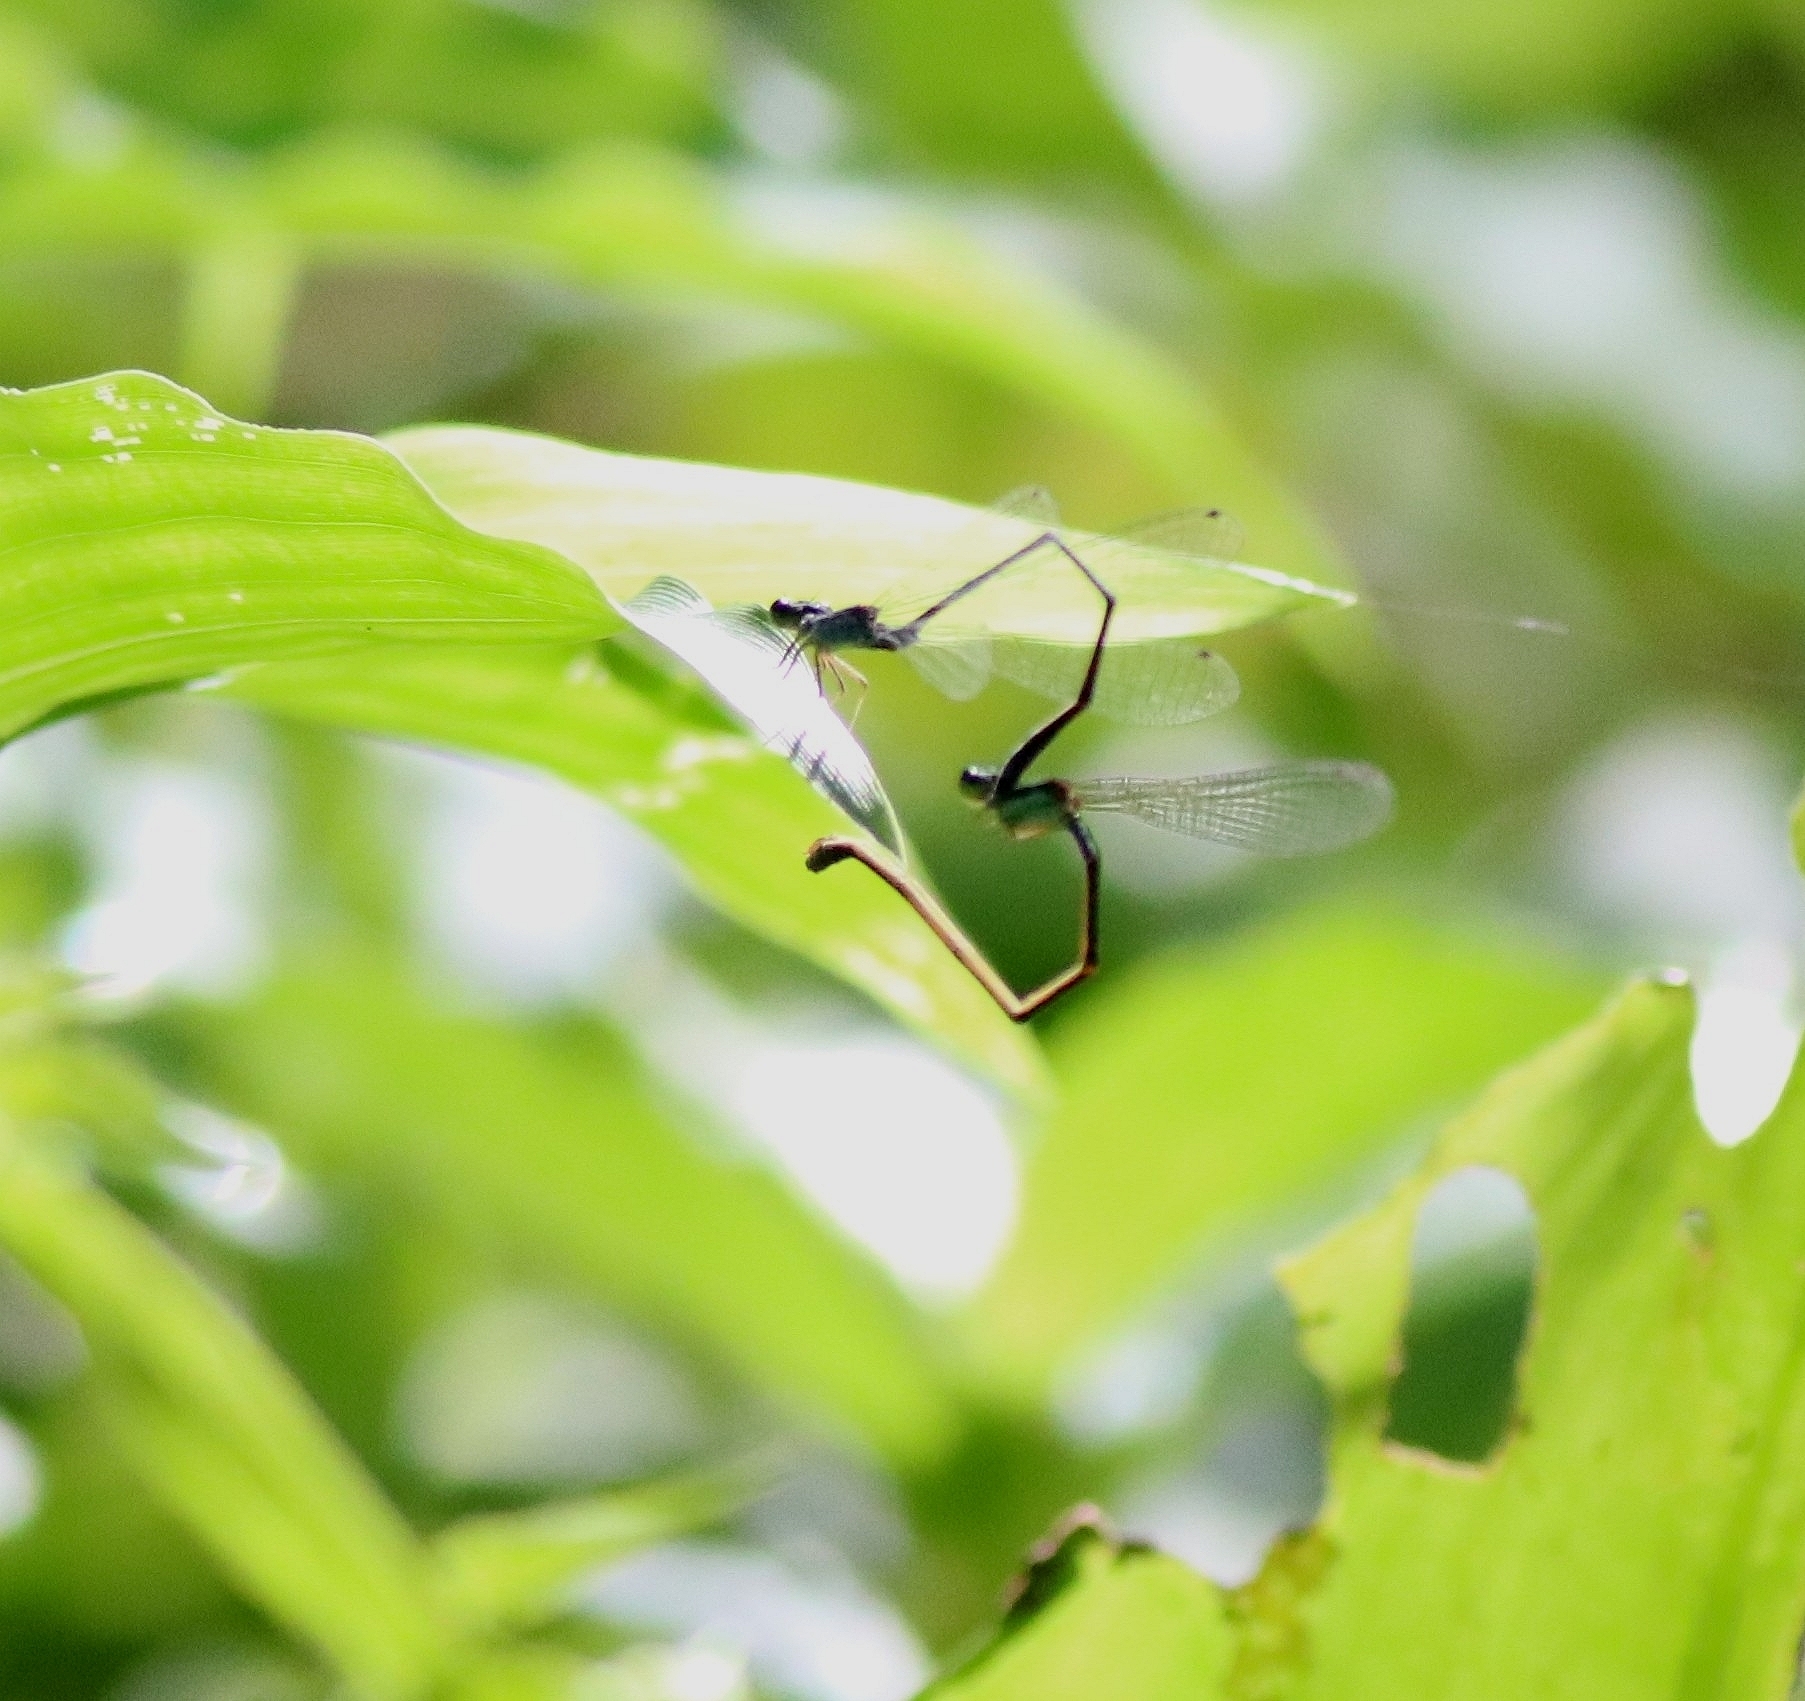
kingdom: Animalia
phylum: Arthropoda
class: Insecta
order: Odonata
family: Coenagrionidae
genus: Aciagrion
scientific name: Aciagrion approximans
